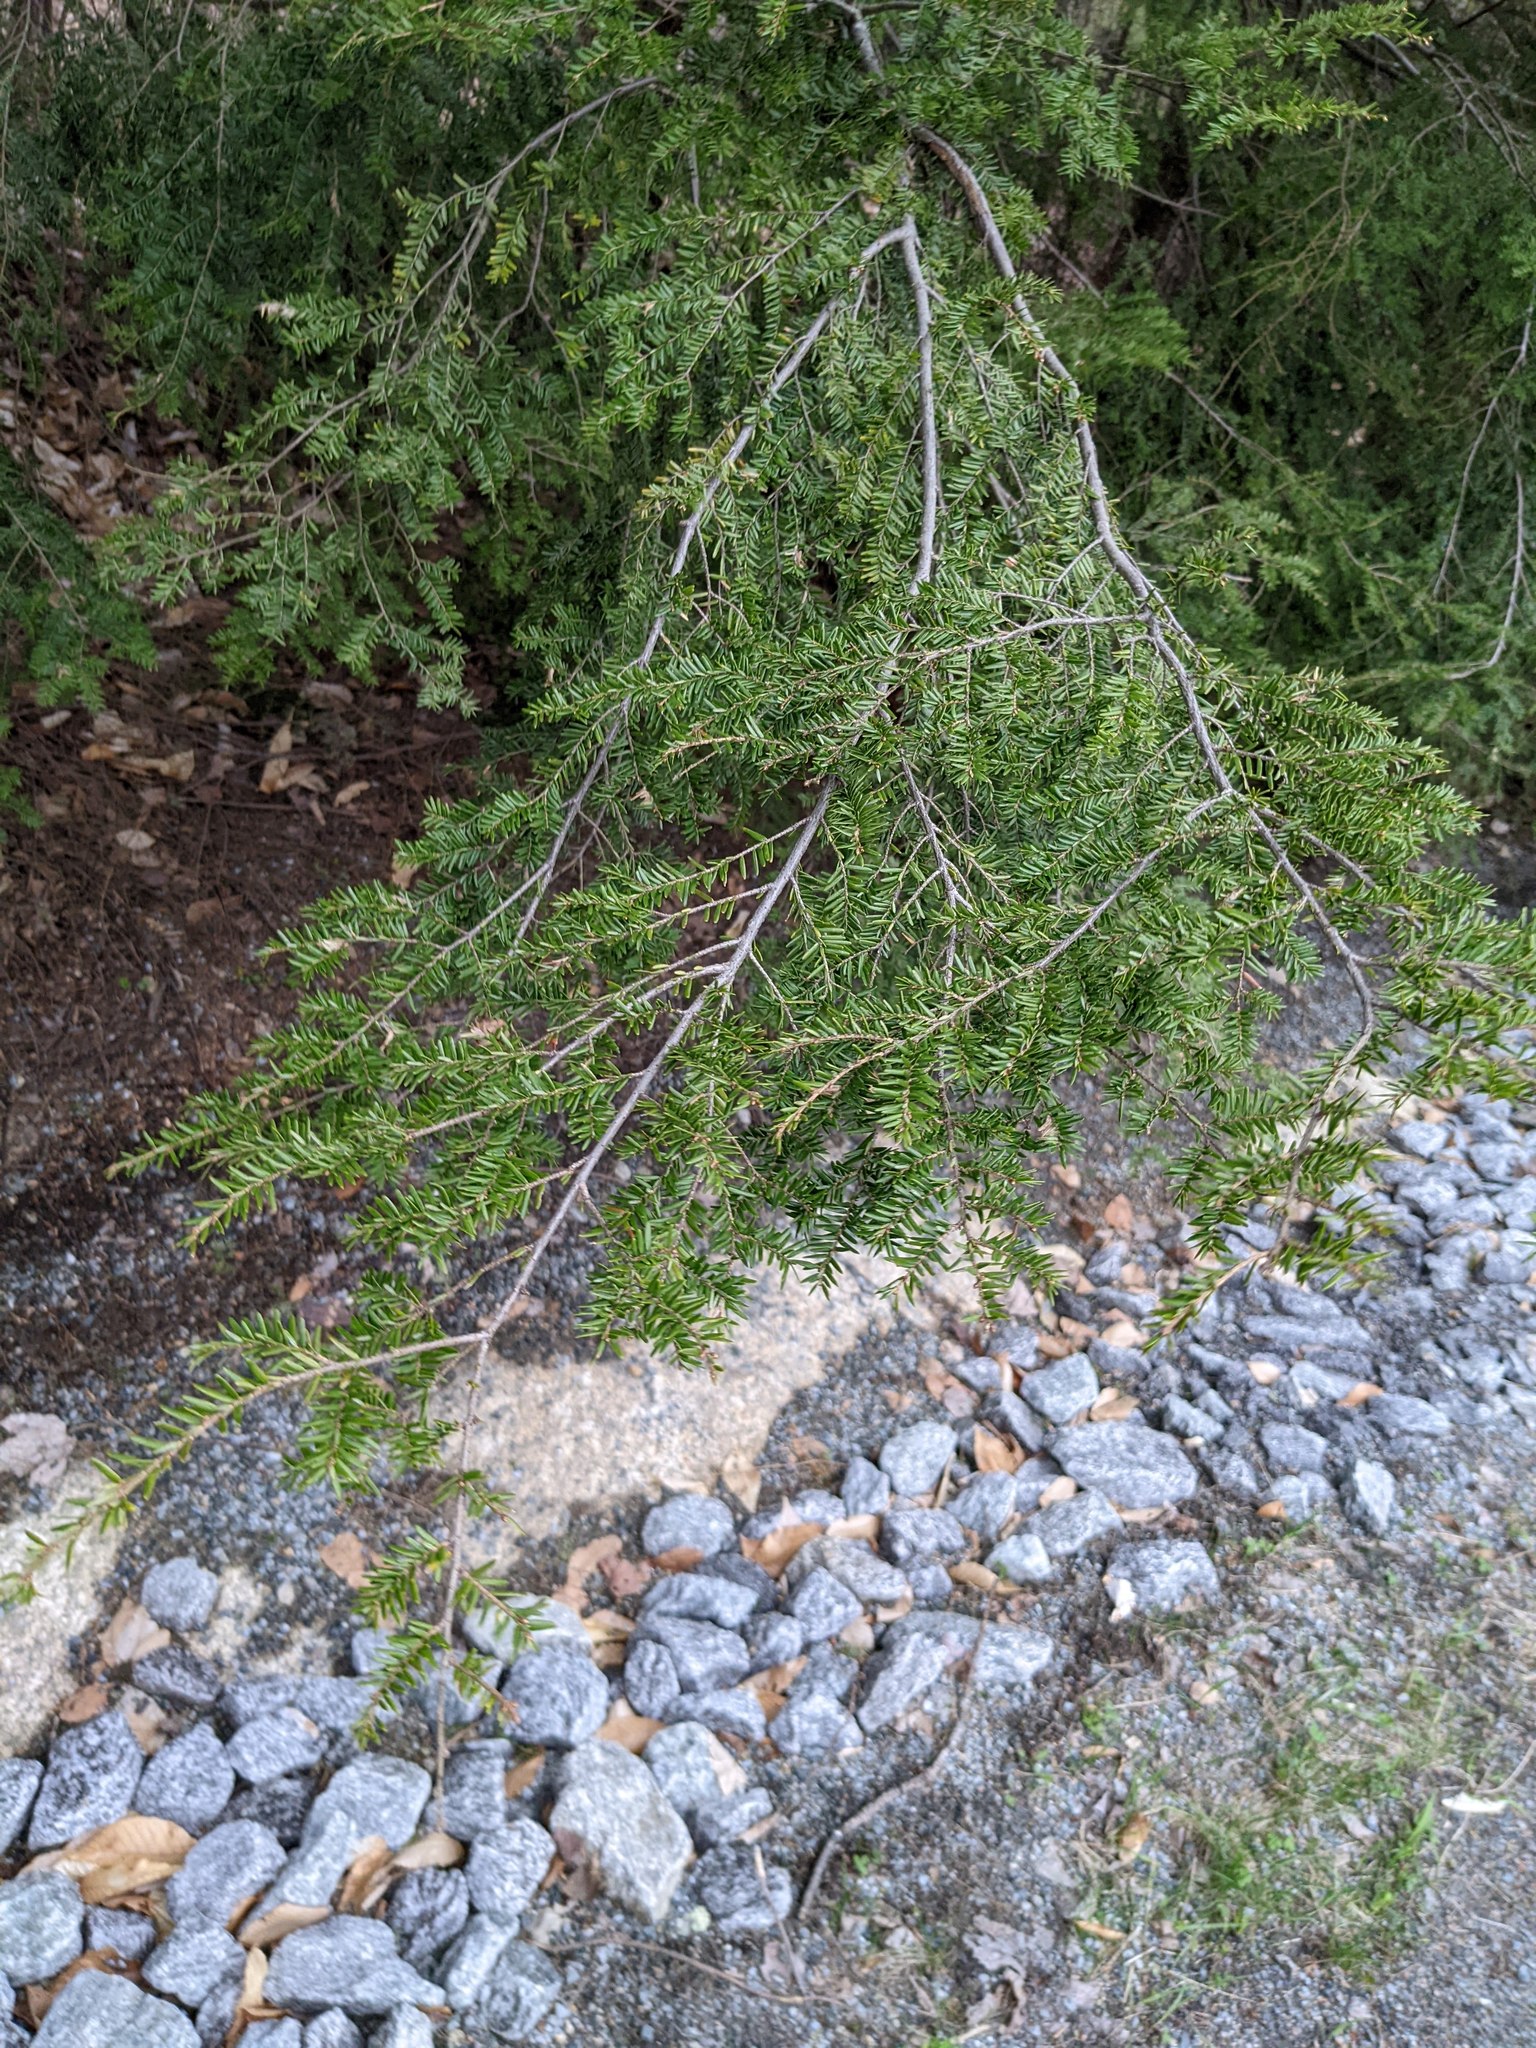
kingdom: Plantae
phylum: Tracheophyta
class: Pinopsida
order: Pinales
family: Pinaceae
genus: Tsuga
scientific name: Tsuga canadensis
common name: Eastern hemlock
